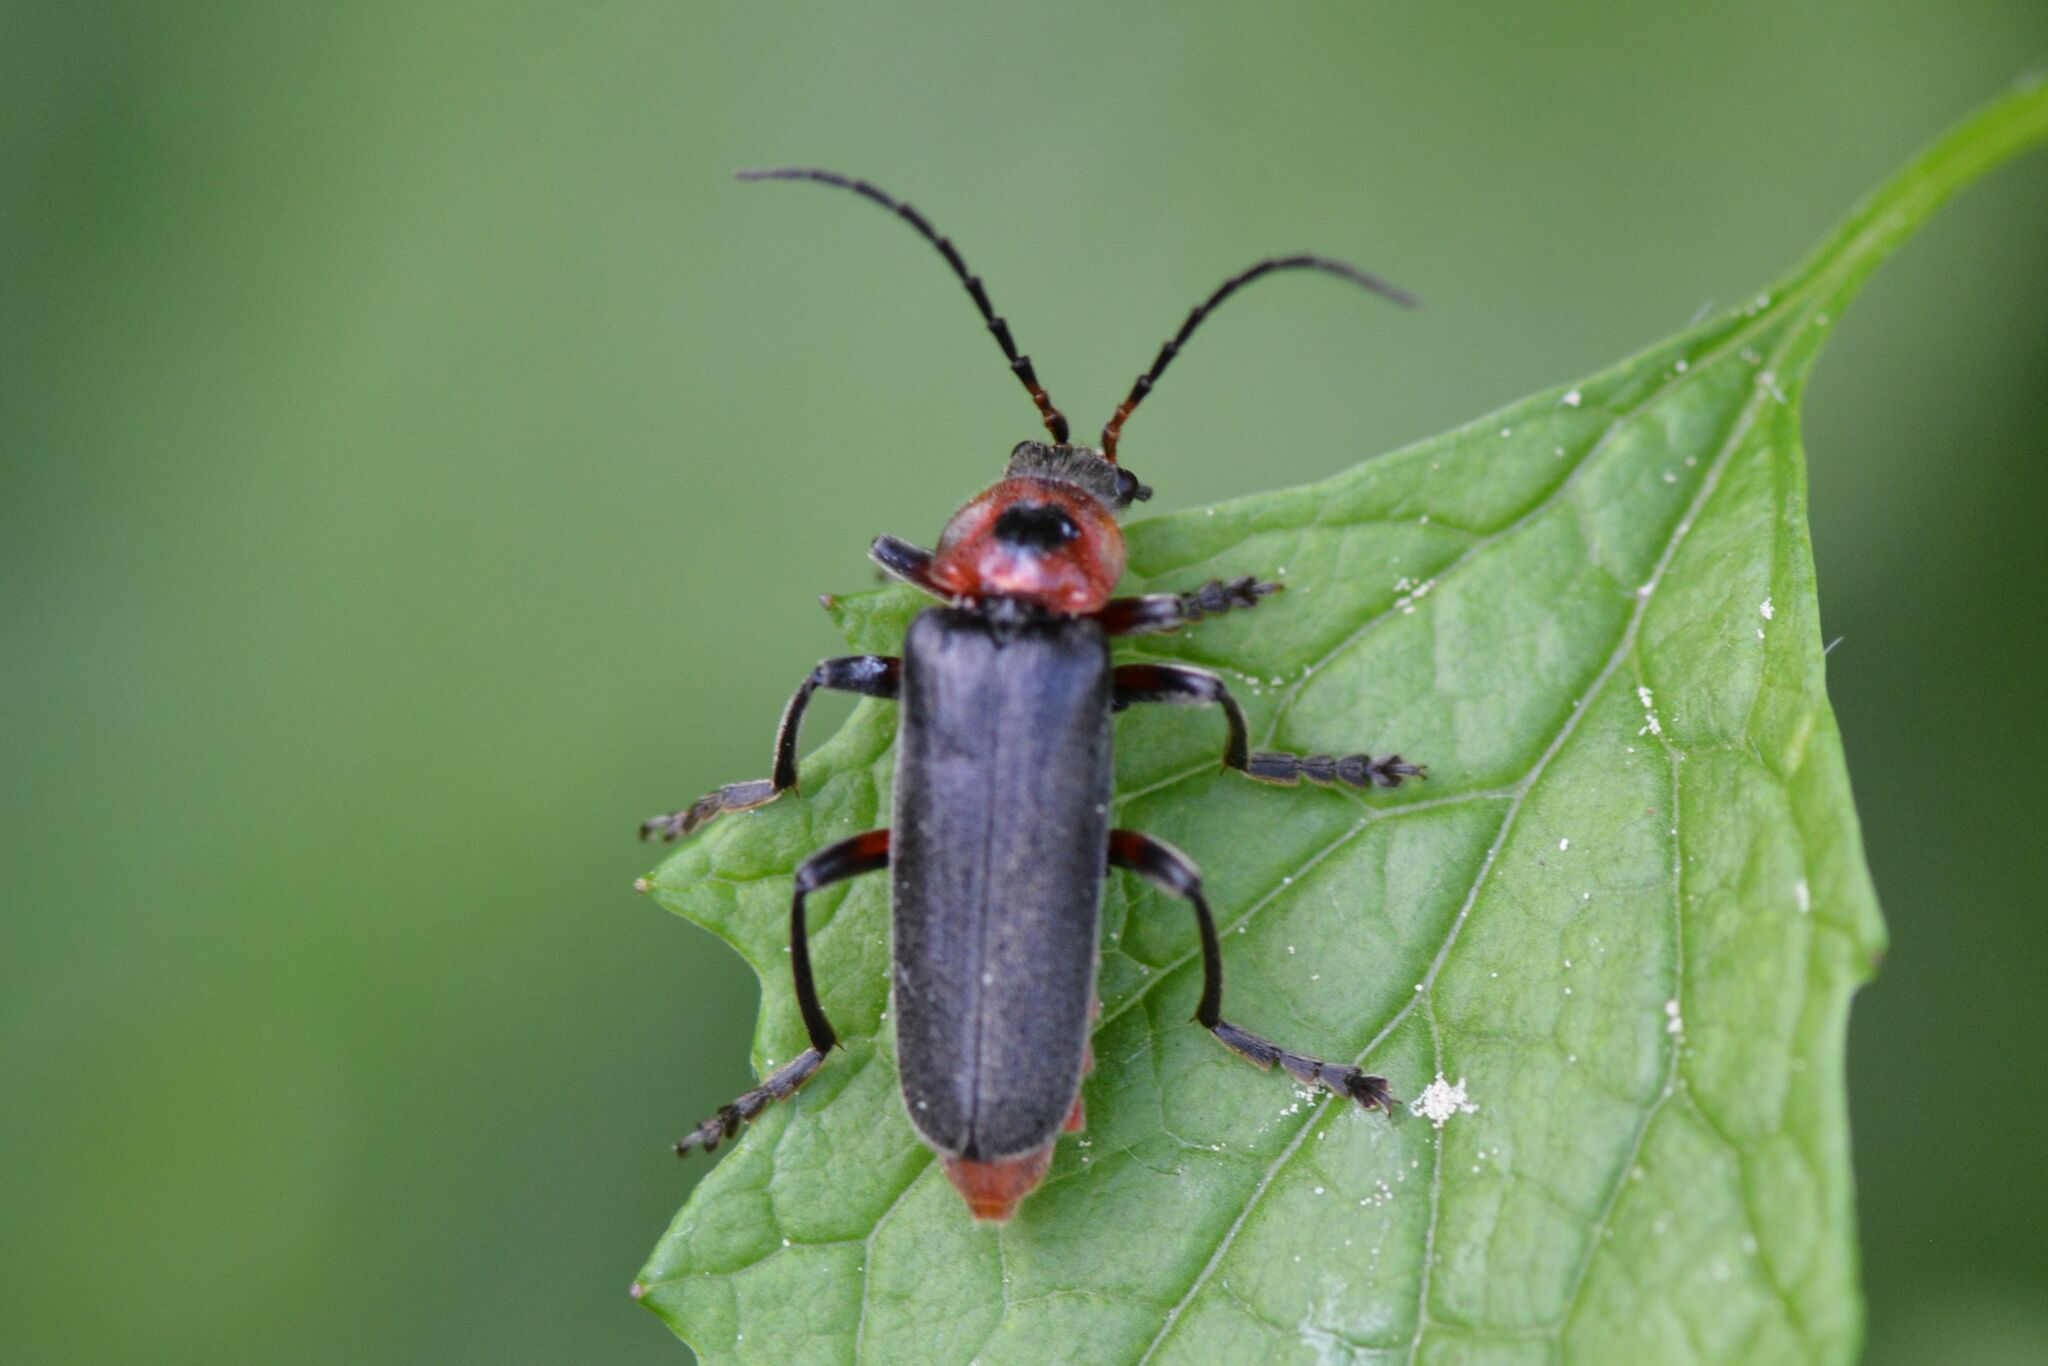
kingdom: Animalia
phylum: Arthropoda
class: Insecta
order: Coleoptera
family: Cantharidae
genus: Cantharis
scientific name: Cantharis rustica
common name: Soldier beetle
